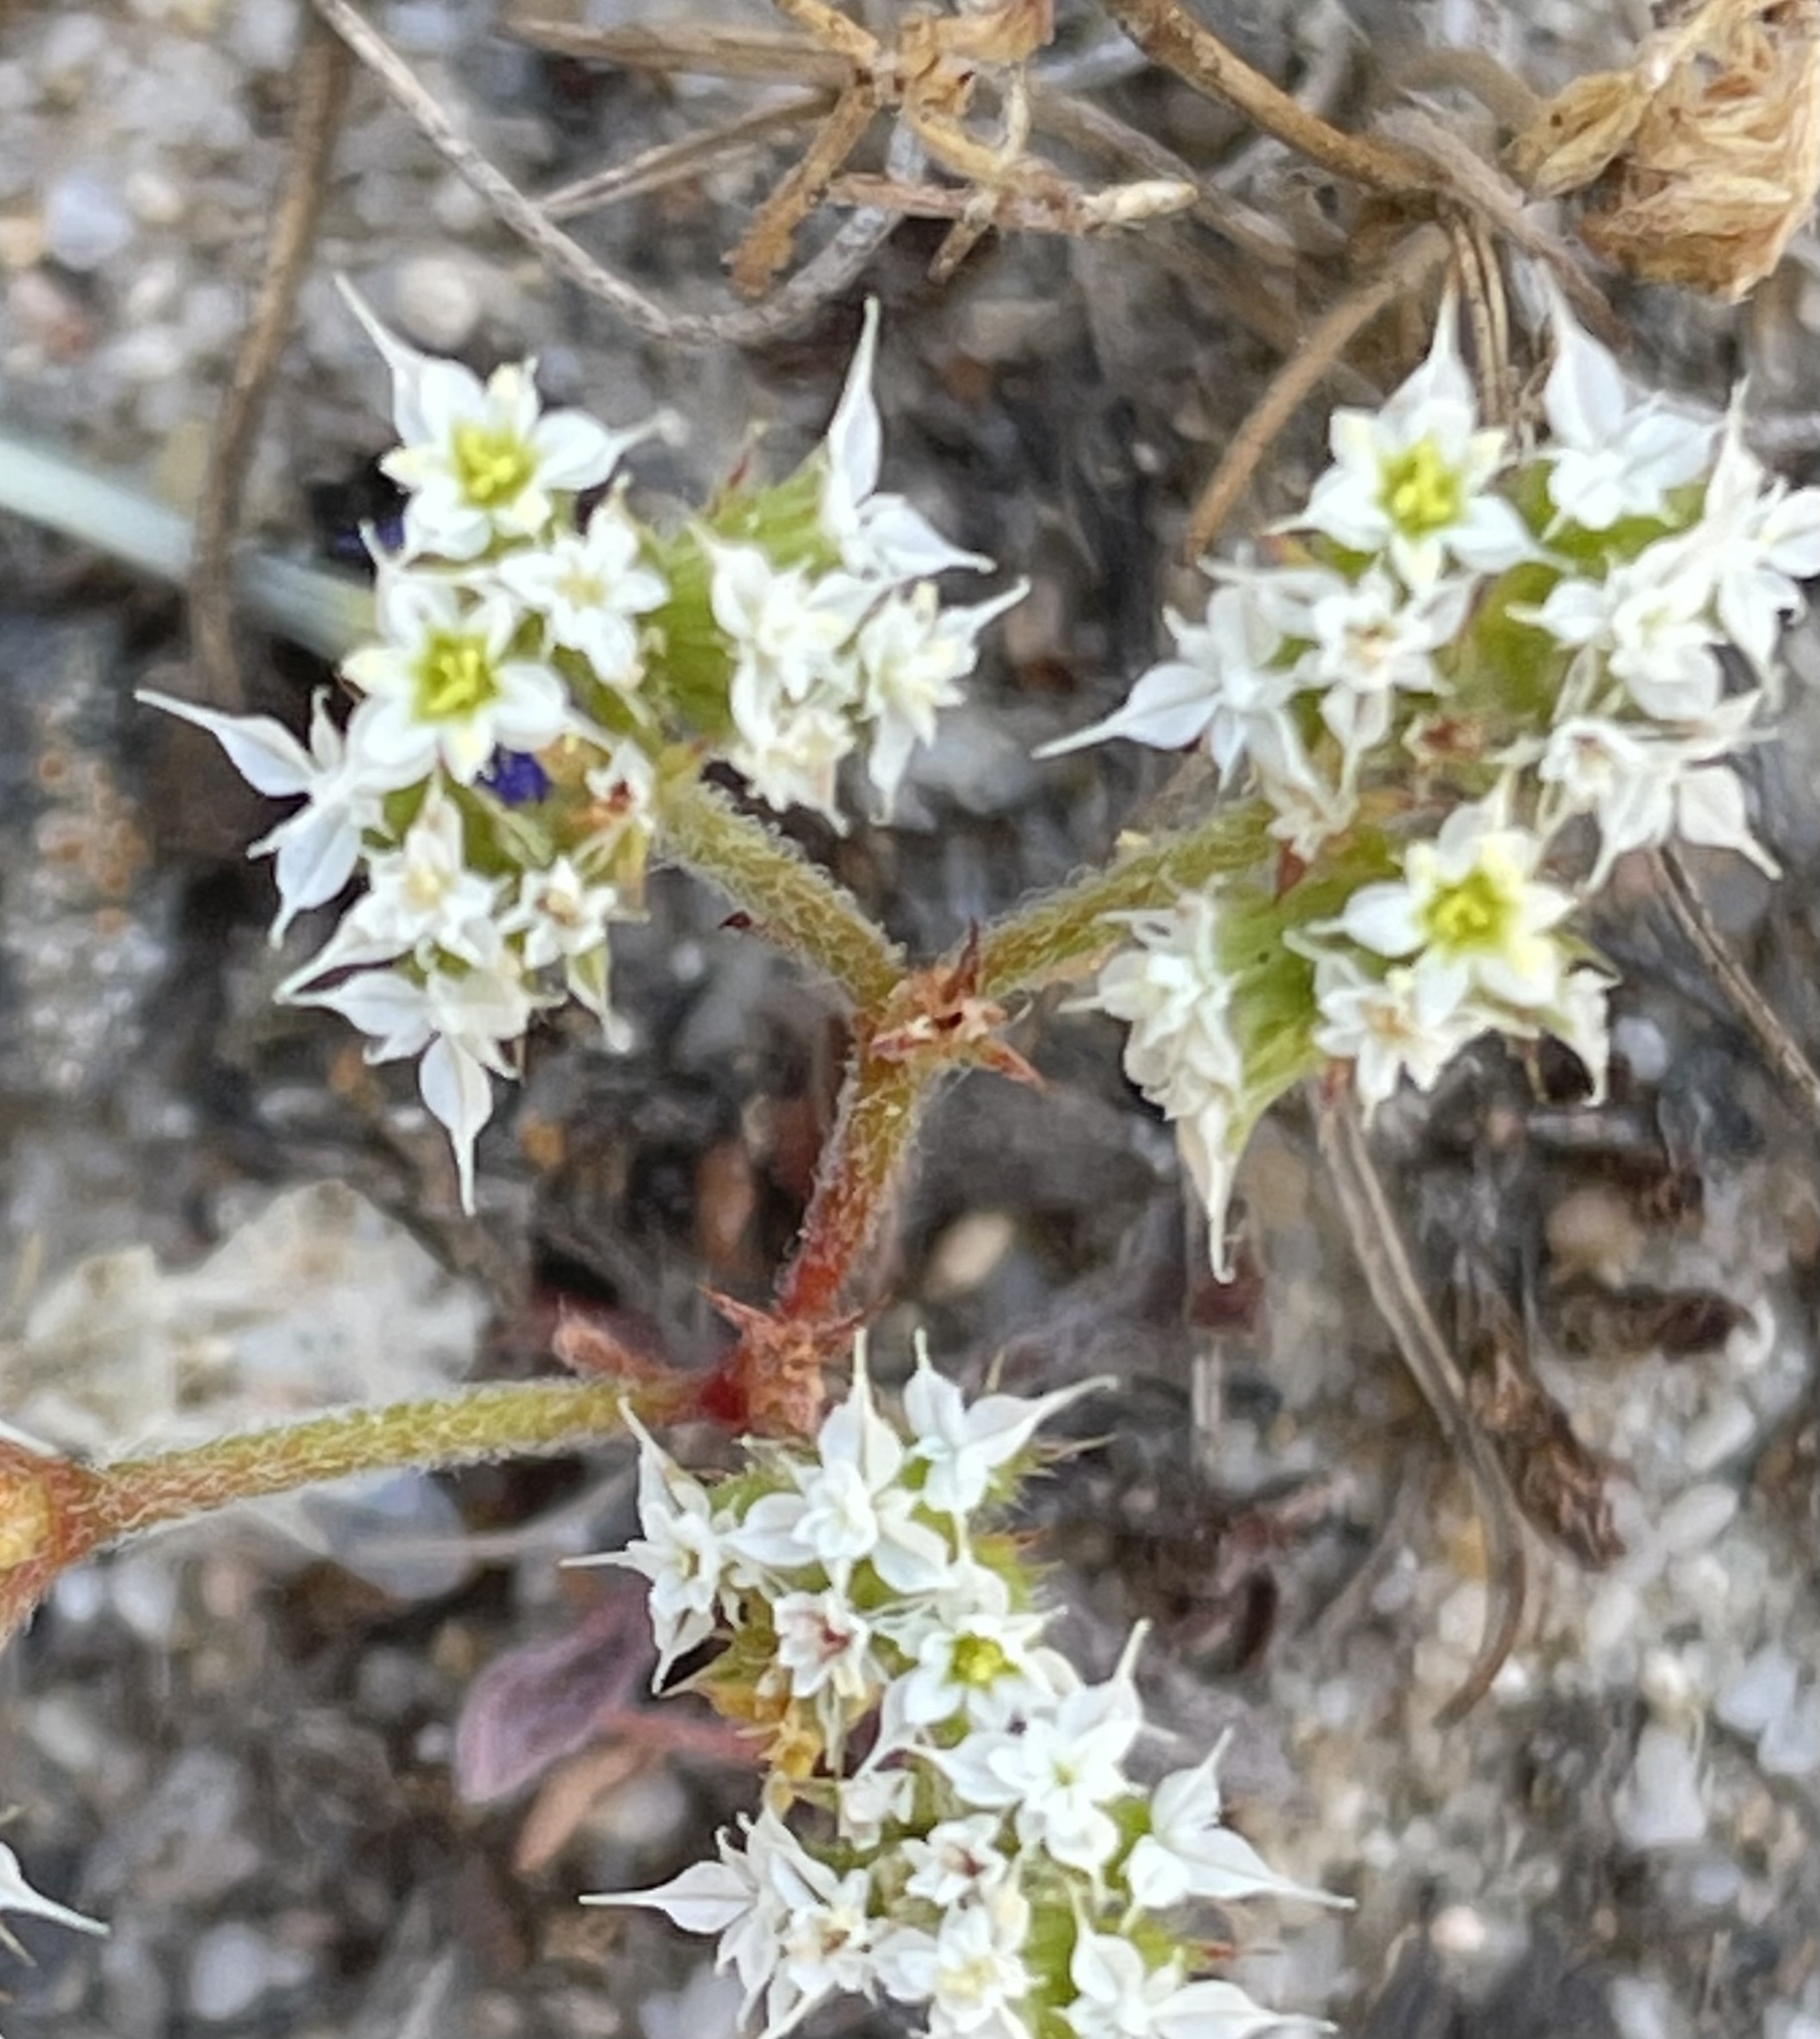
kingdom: Plantae
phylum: Tracheophyta
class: Magnoliopsida
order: Caryophyllales
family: Polygonaceae
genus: Chorizanthe
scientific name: Chorizanthe diffusa
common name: Diffuse spineflower
